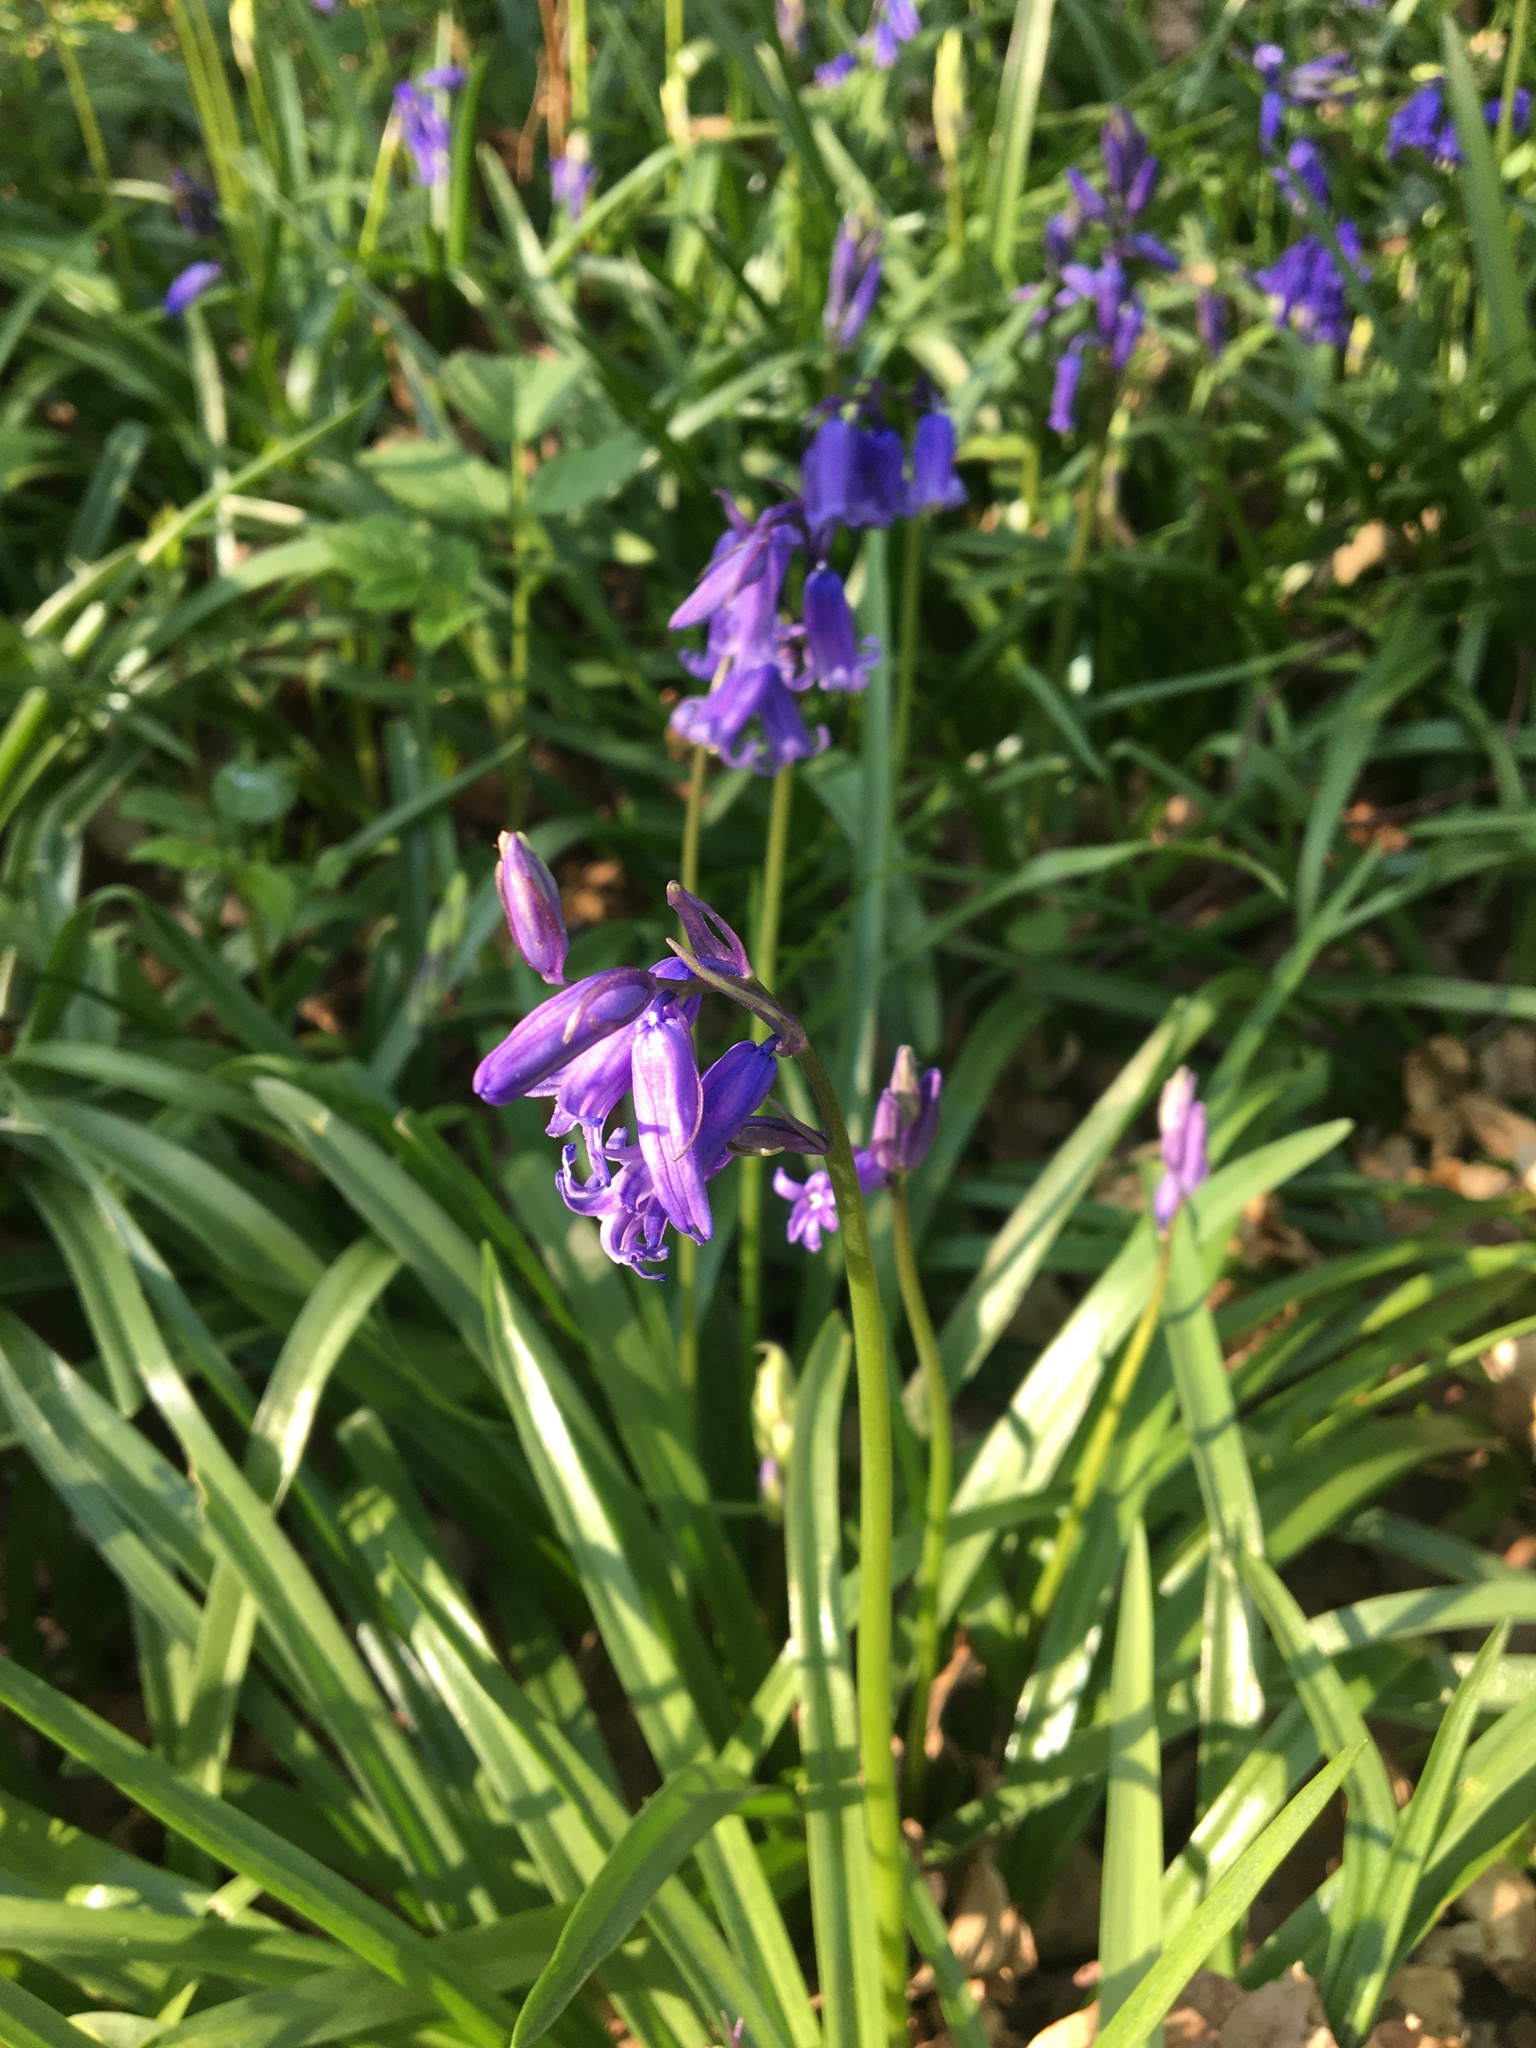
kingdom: Plantae
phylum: Tracheophyta
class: Liliopsida
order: Asparagales
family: Asparagaceae
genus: Hyacinthoides
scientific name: Hyacinthoides non-scripta
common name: Bluebell
